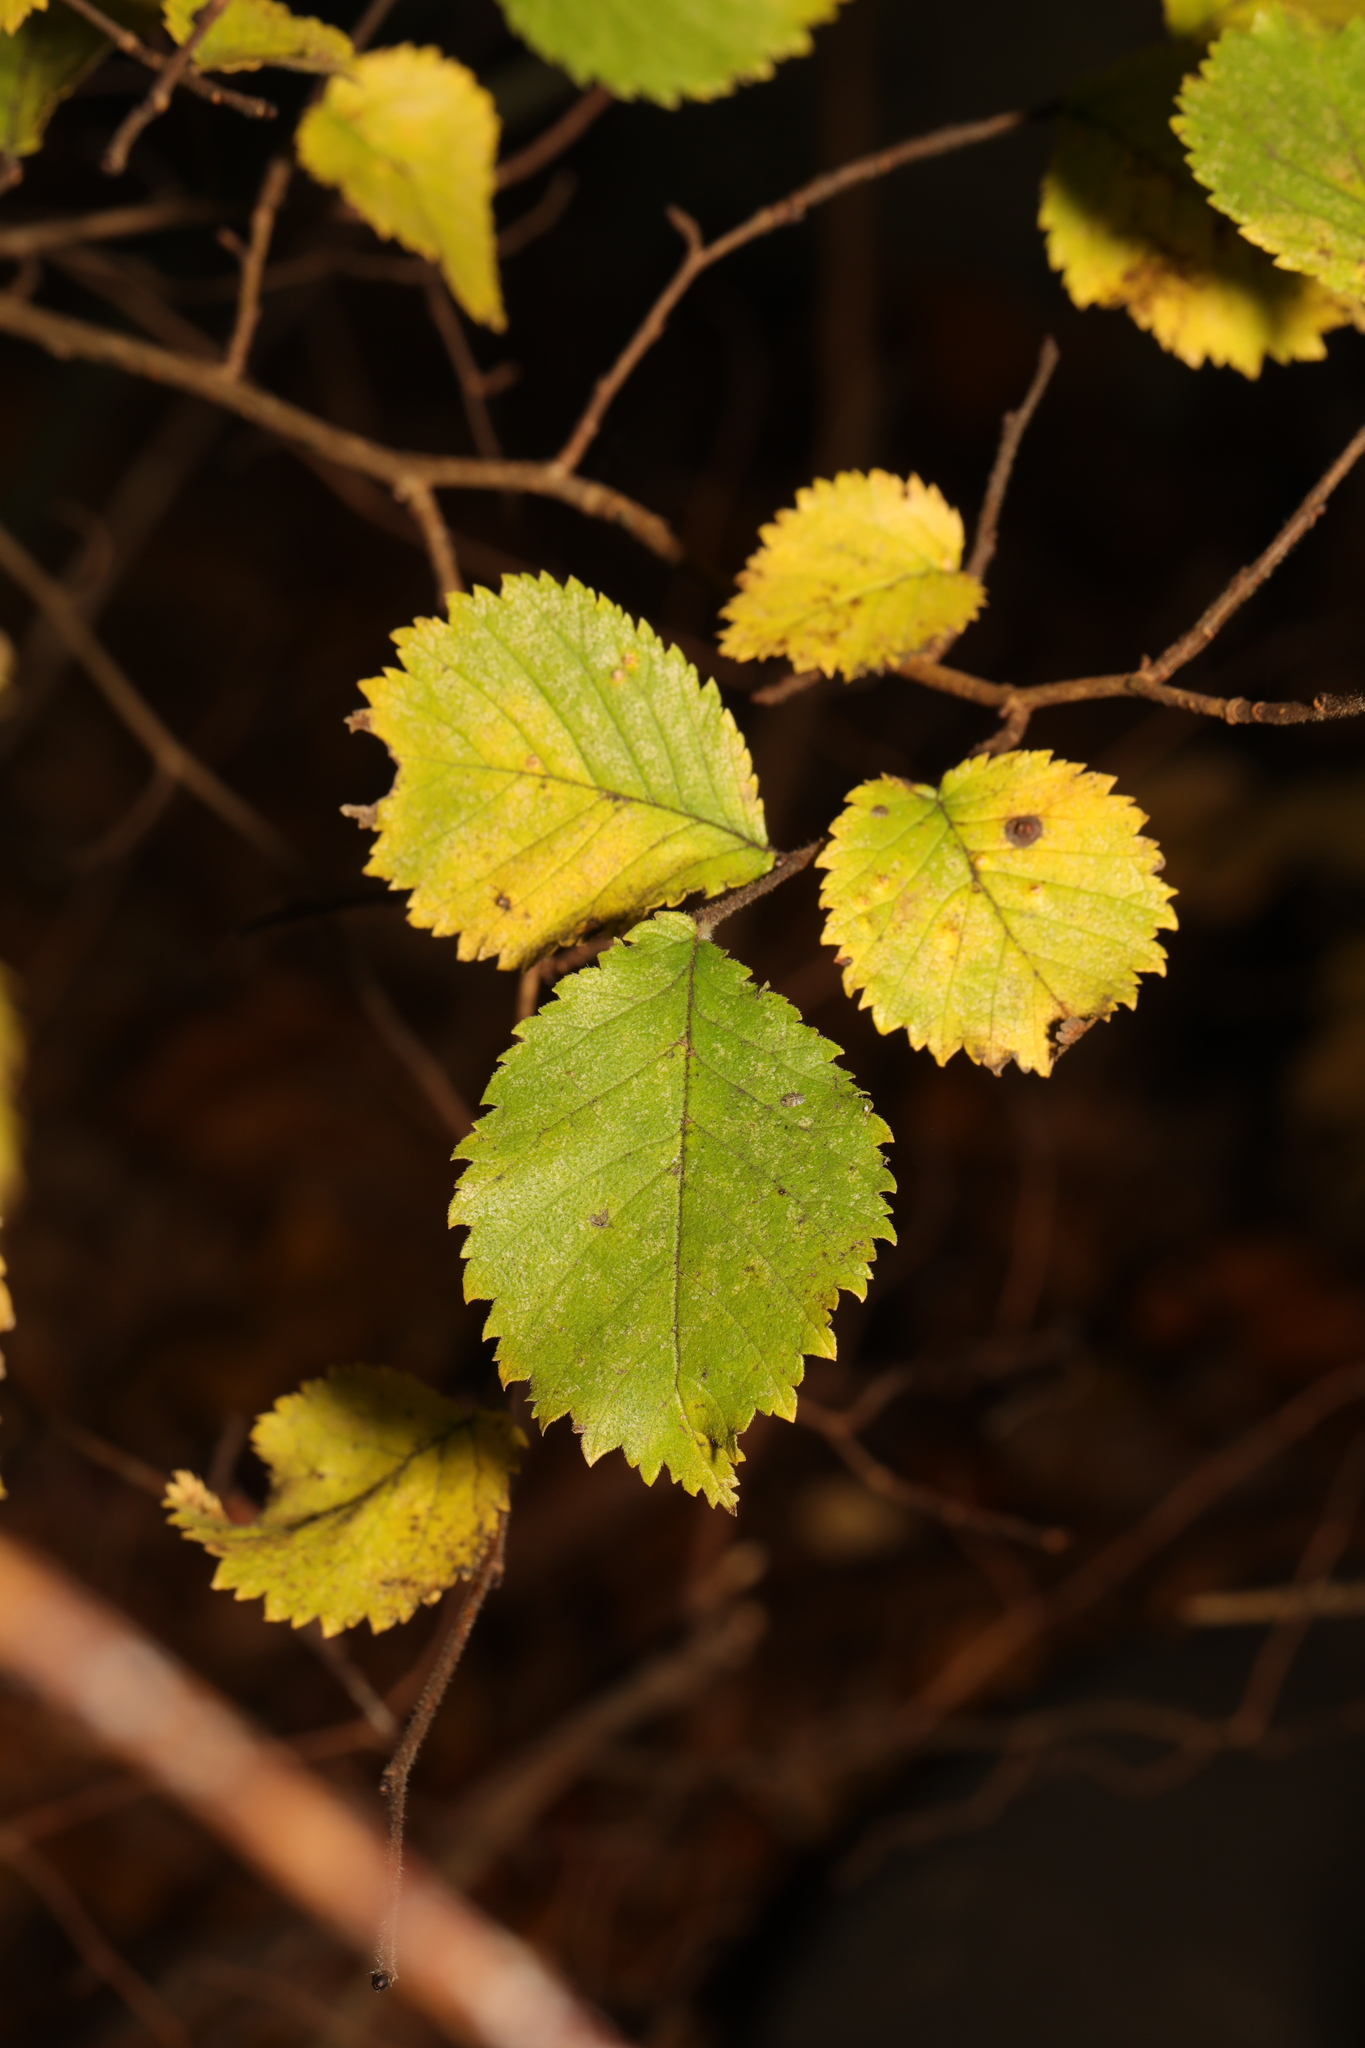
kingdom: Plantae
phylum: Tracheophyta
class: Magnoliopsida
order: Rosales
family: Ulmaceae
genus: Ulmus
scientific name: Ulmus minor
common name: Small-leaved elm
